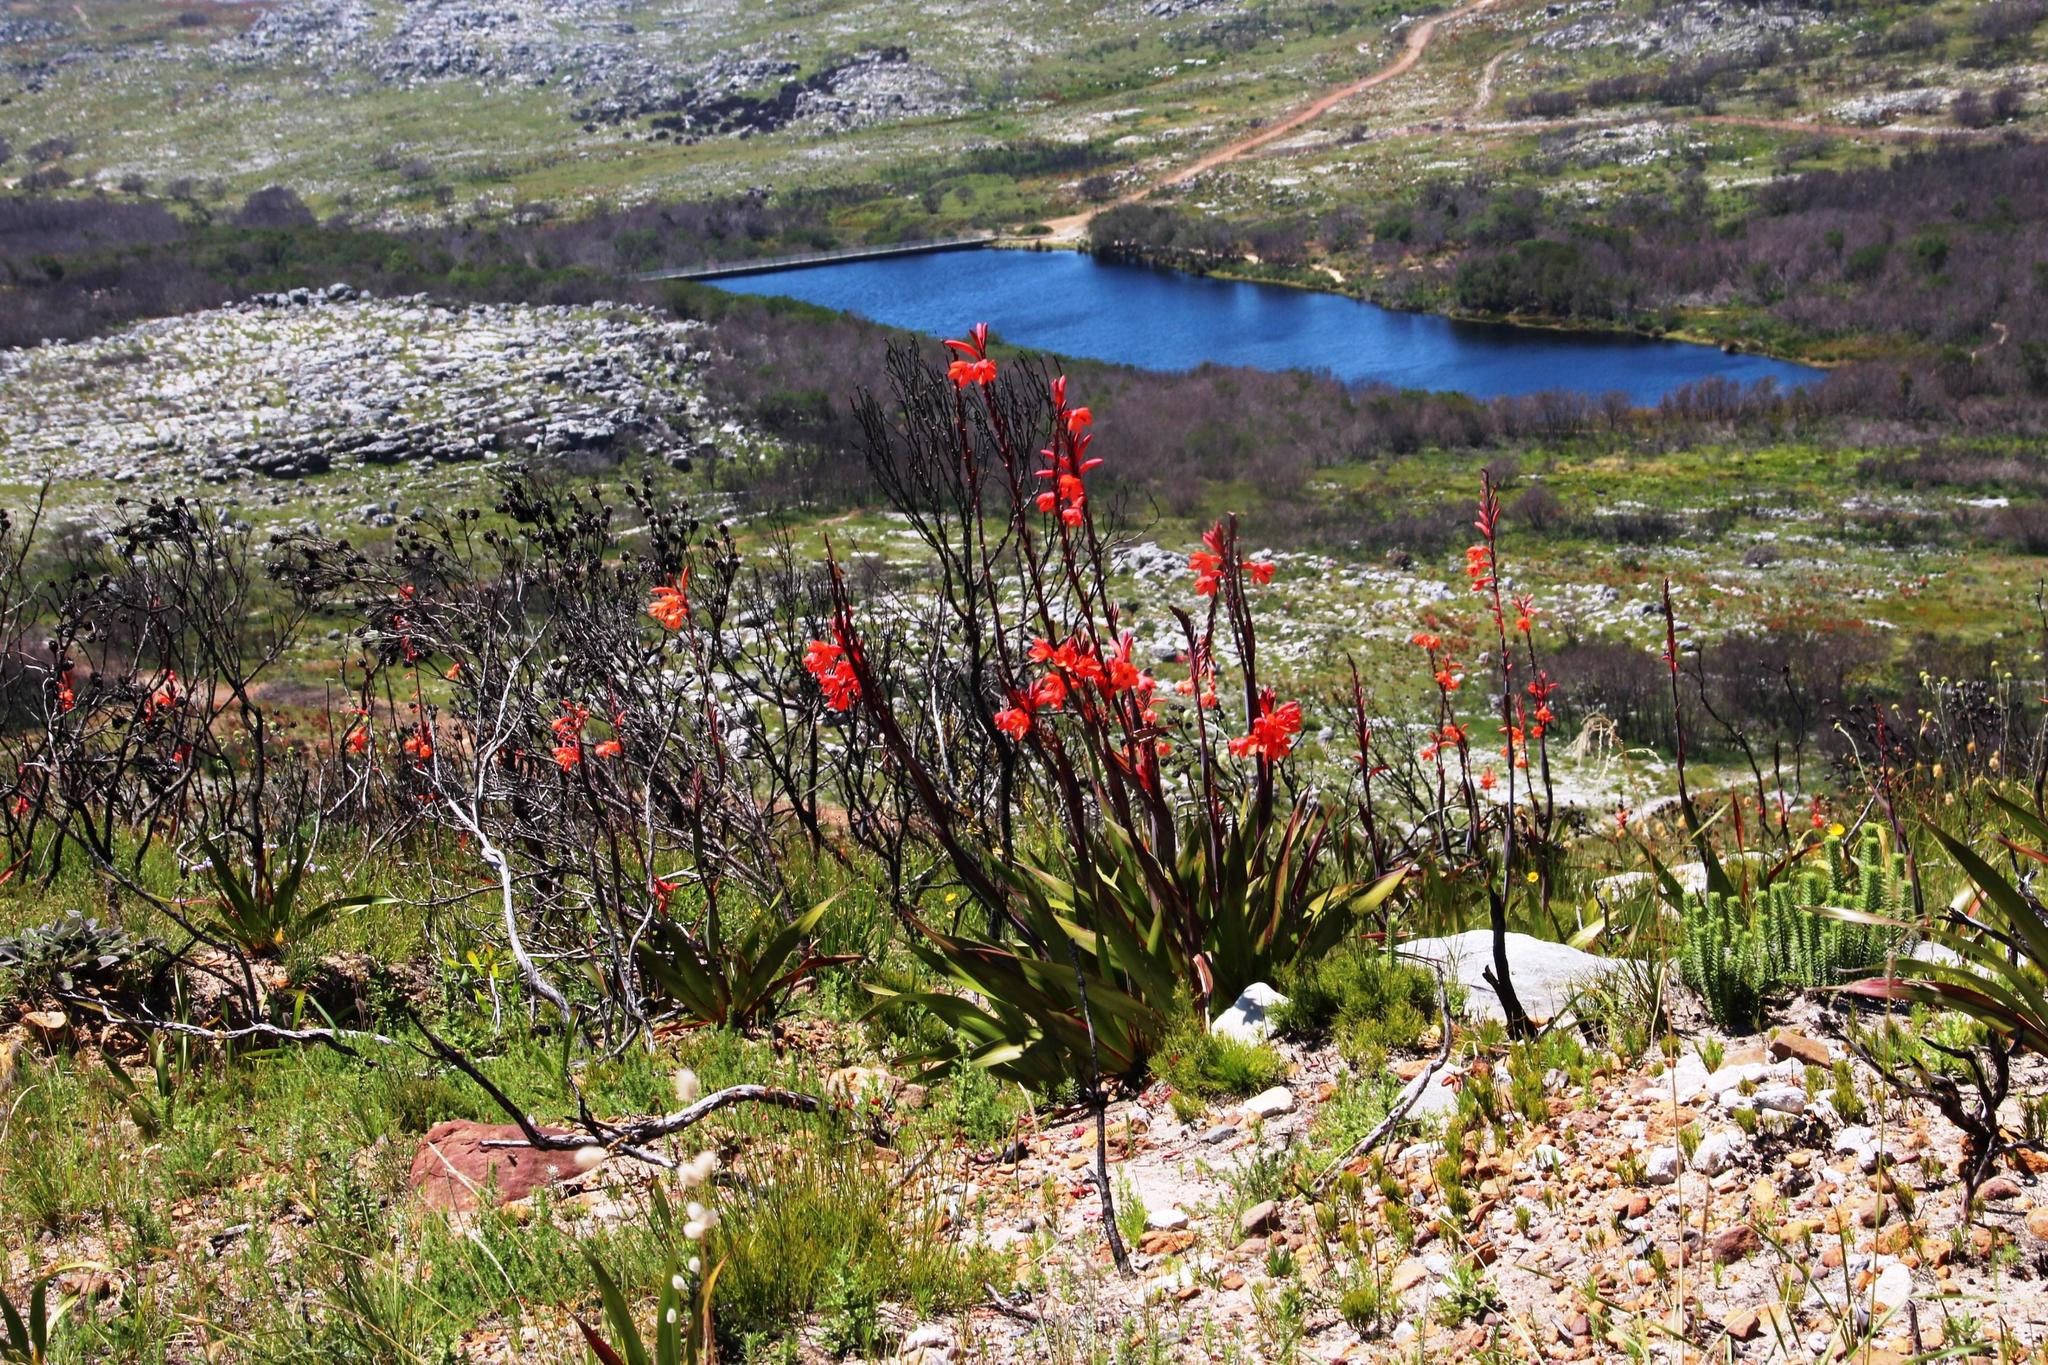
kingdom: Plantae
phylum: Tracheophyta
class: Liliopsida
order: Asparagales
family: Iridaceae
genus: Watsonia
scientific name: Watsonia tabularis
